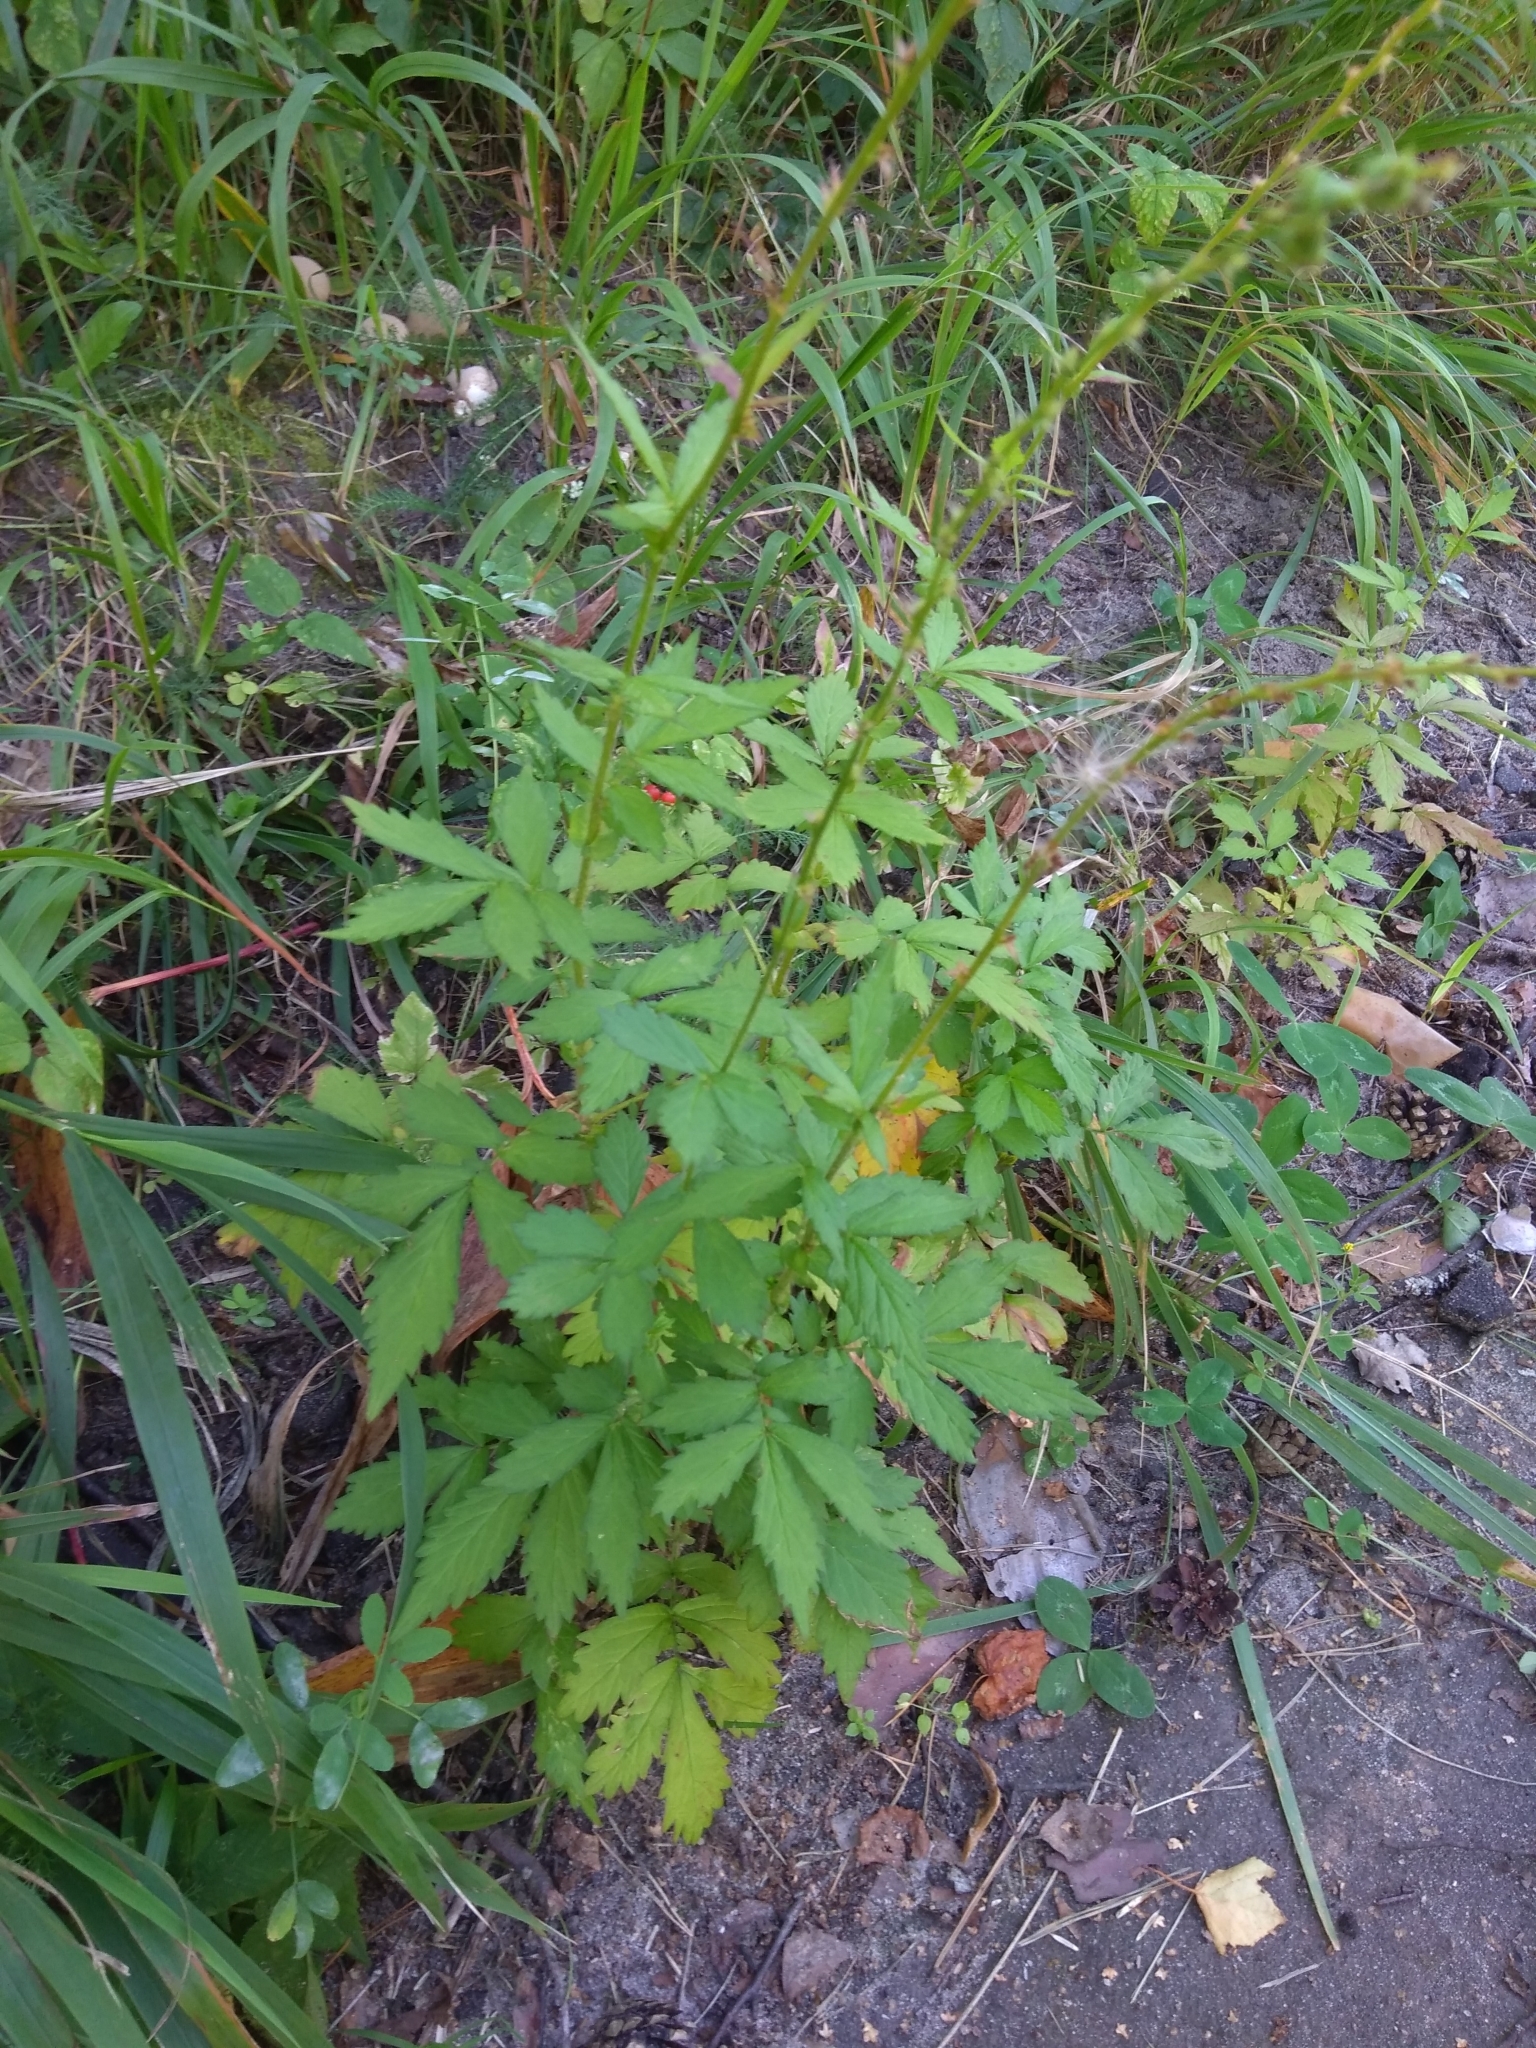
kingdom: Plantae
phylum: Tracheophyta
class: Magnoliopsida
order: Rosales
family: Rosaceae
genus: Agrimonia
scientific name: Agrimonia pilosa
